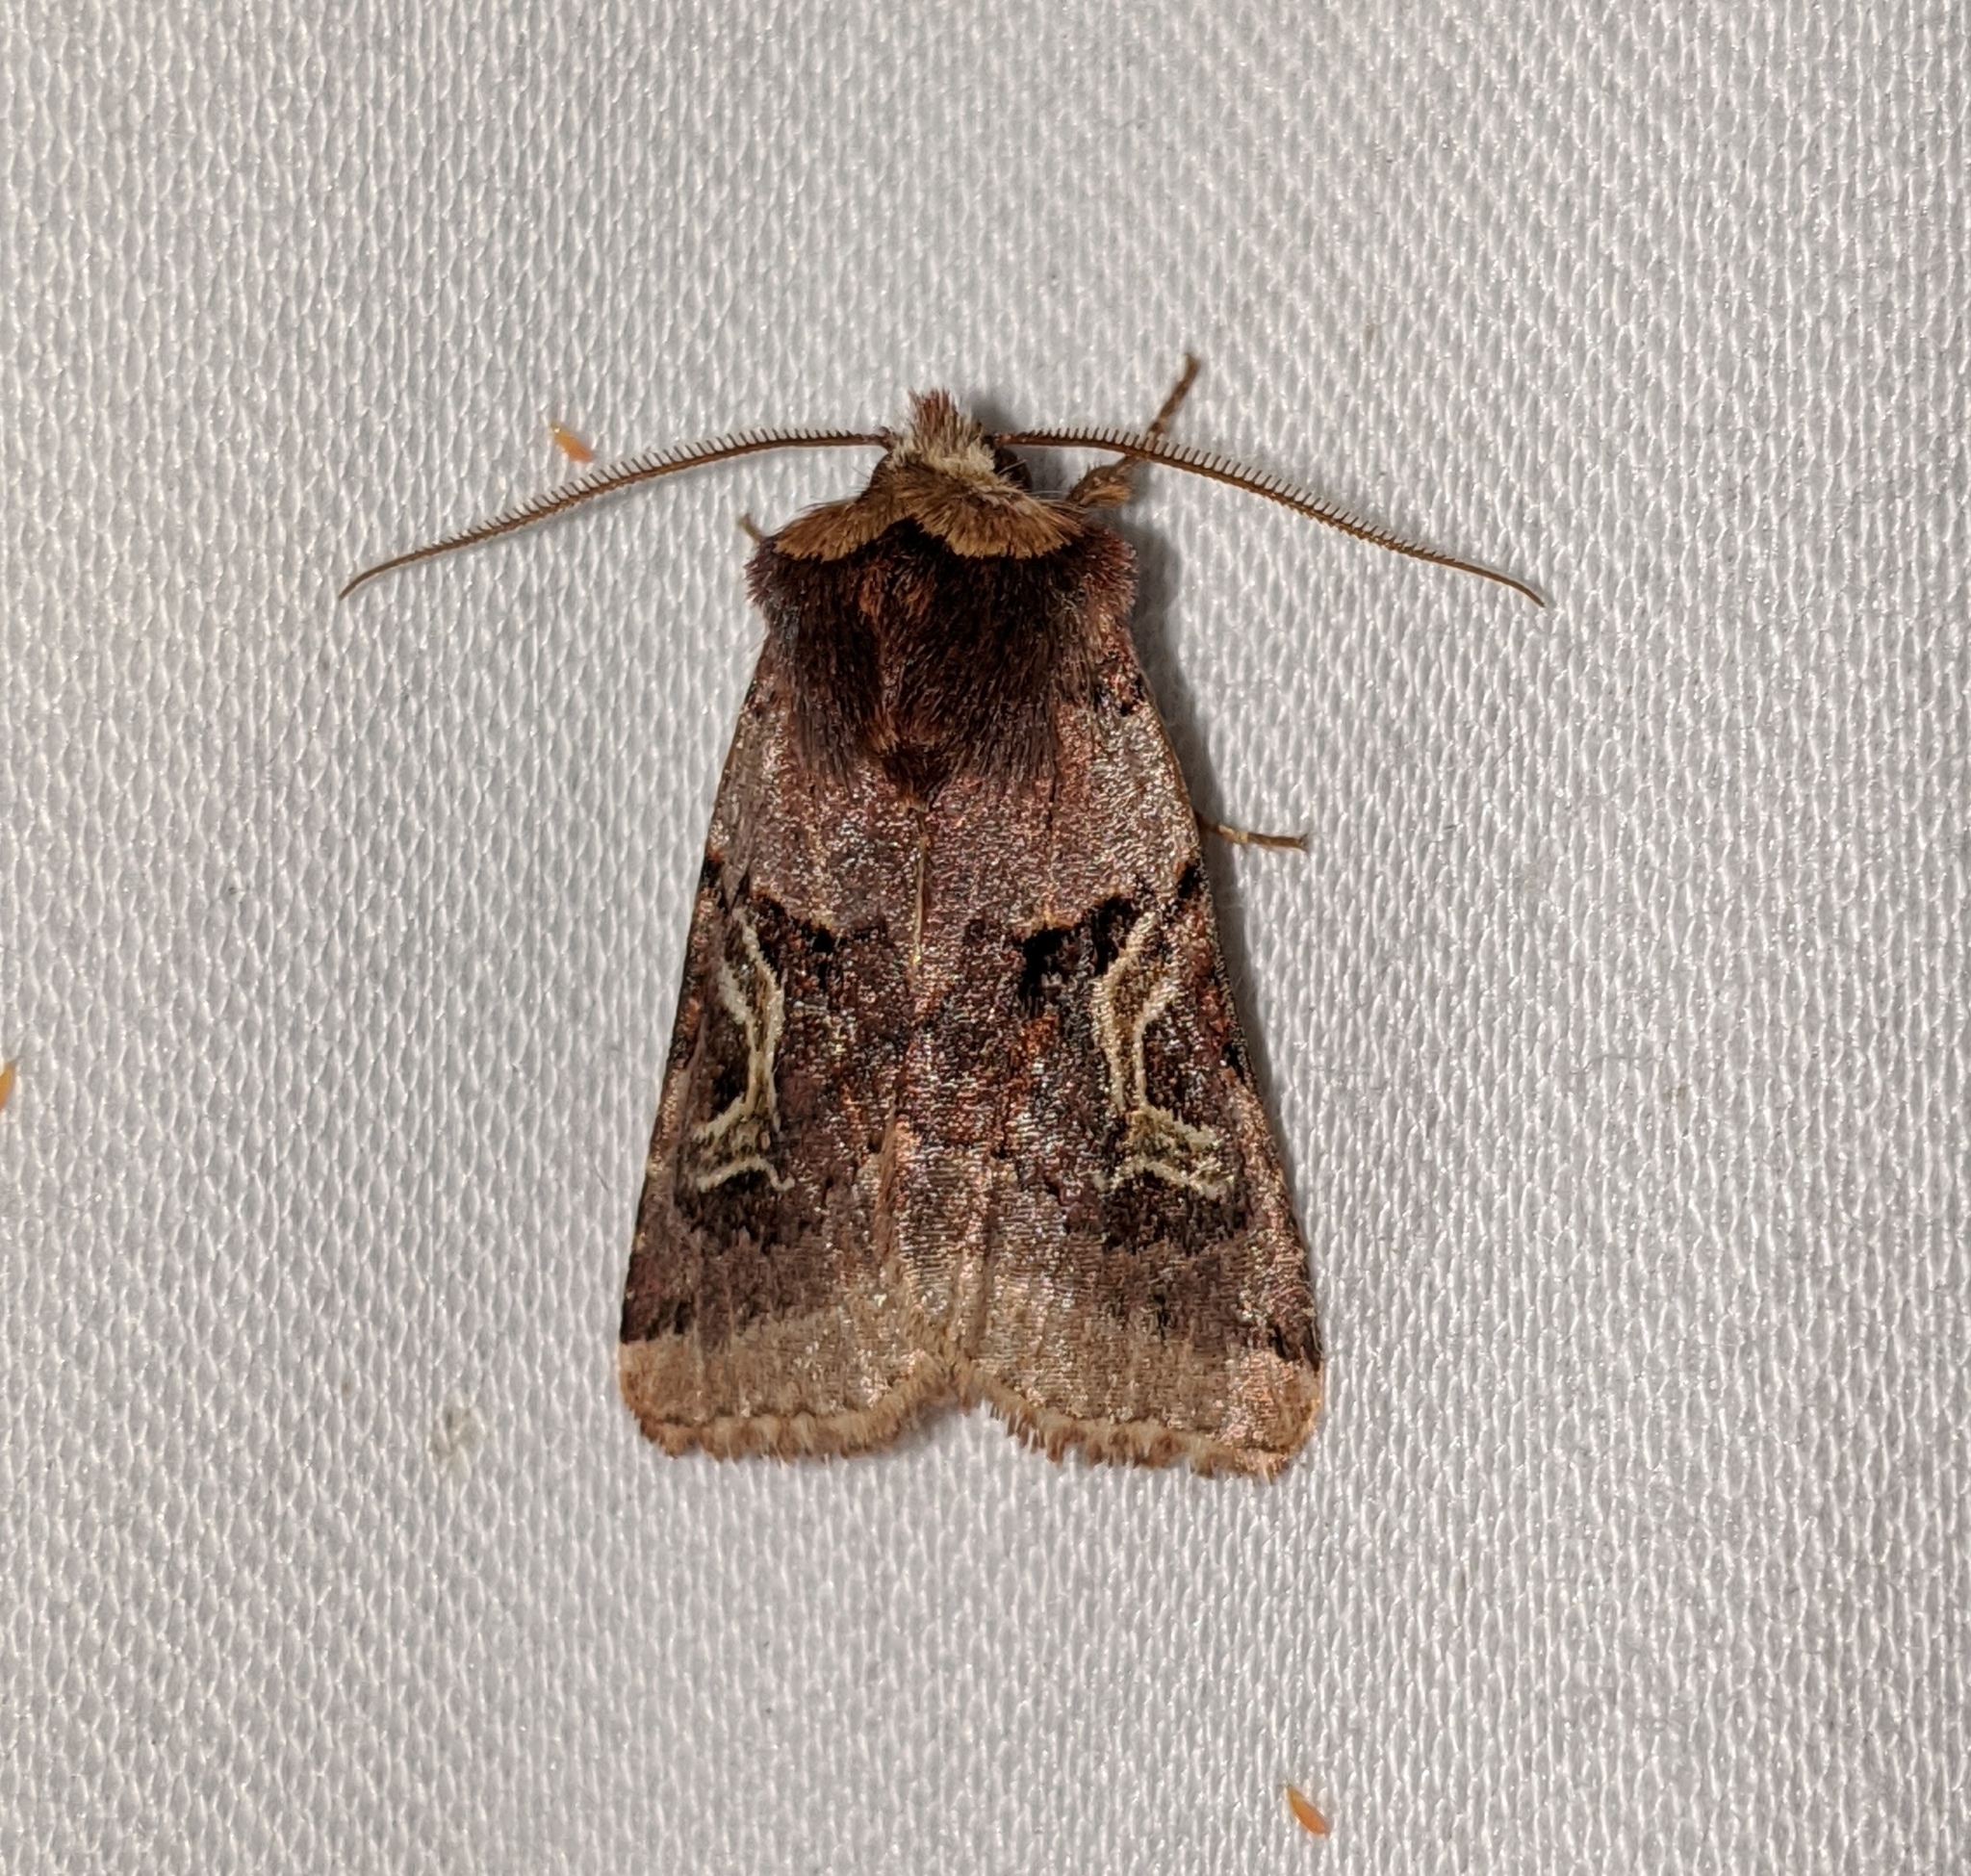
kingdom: Animalia
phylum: Arthropoda
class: Insecta
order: Lepidoptera
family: Noctuidae
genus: Cerastis
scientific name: Cerastis enigmatica
